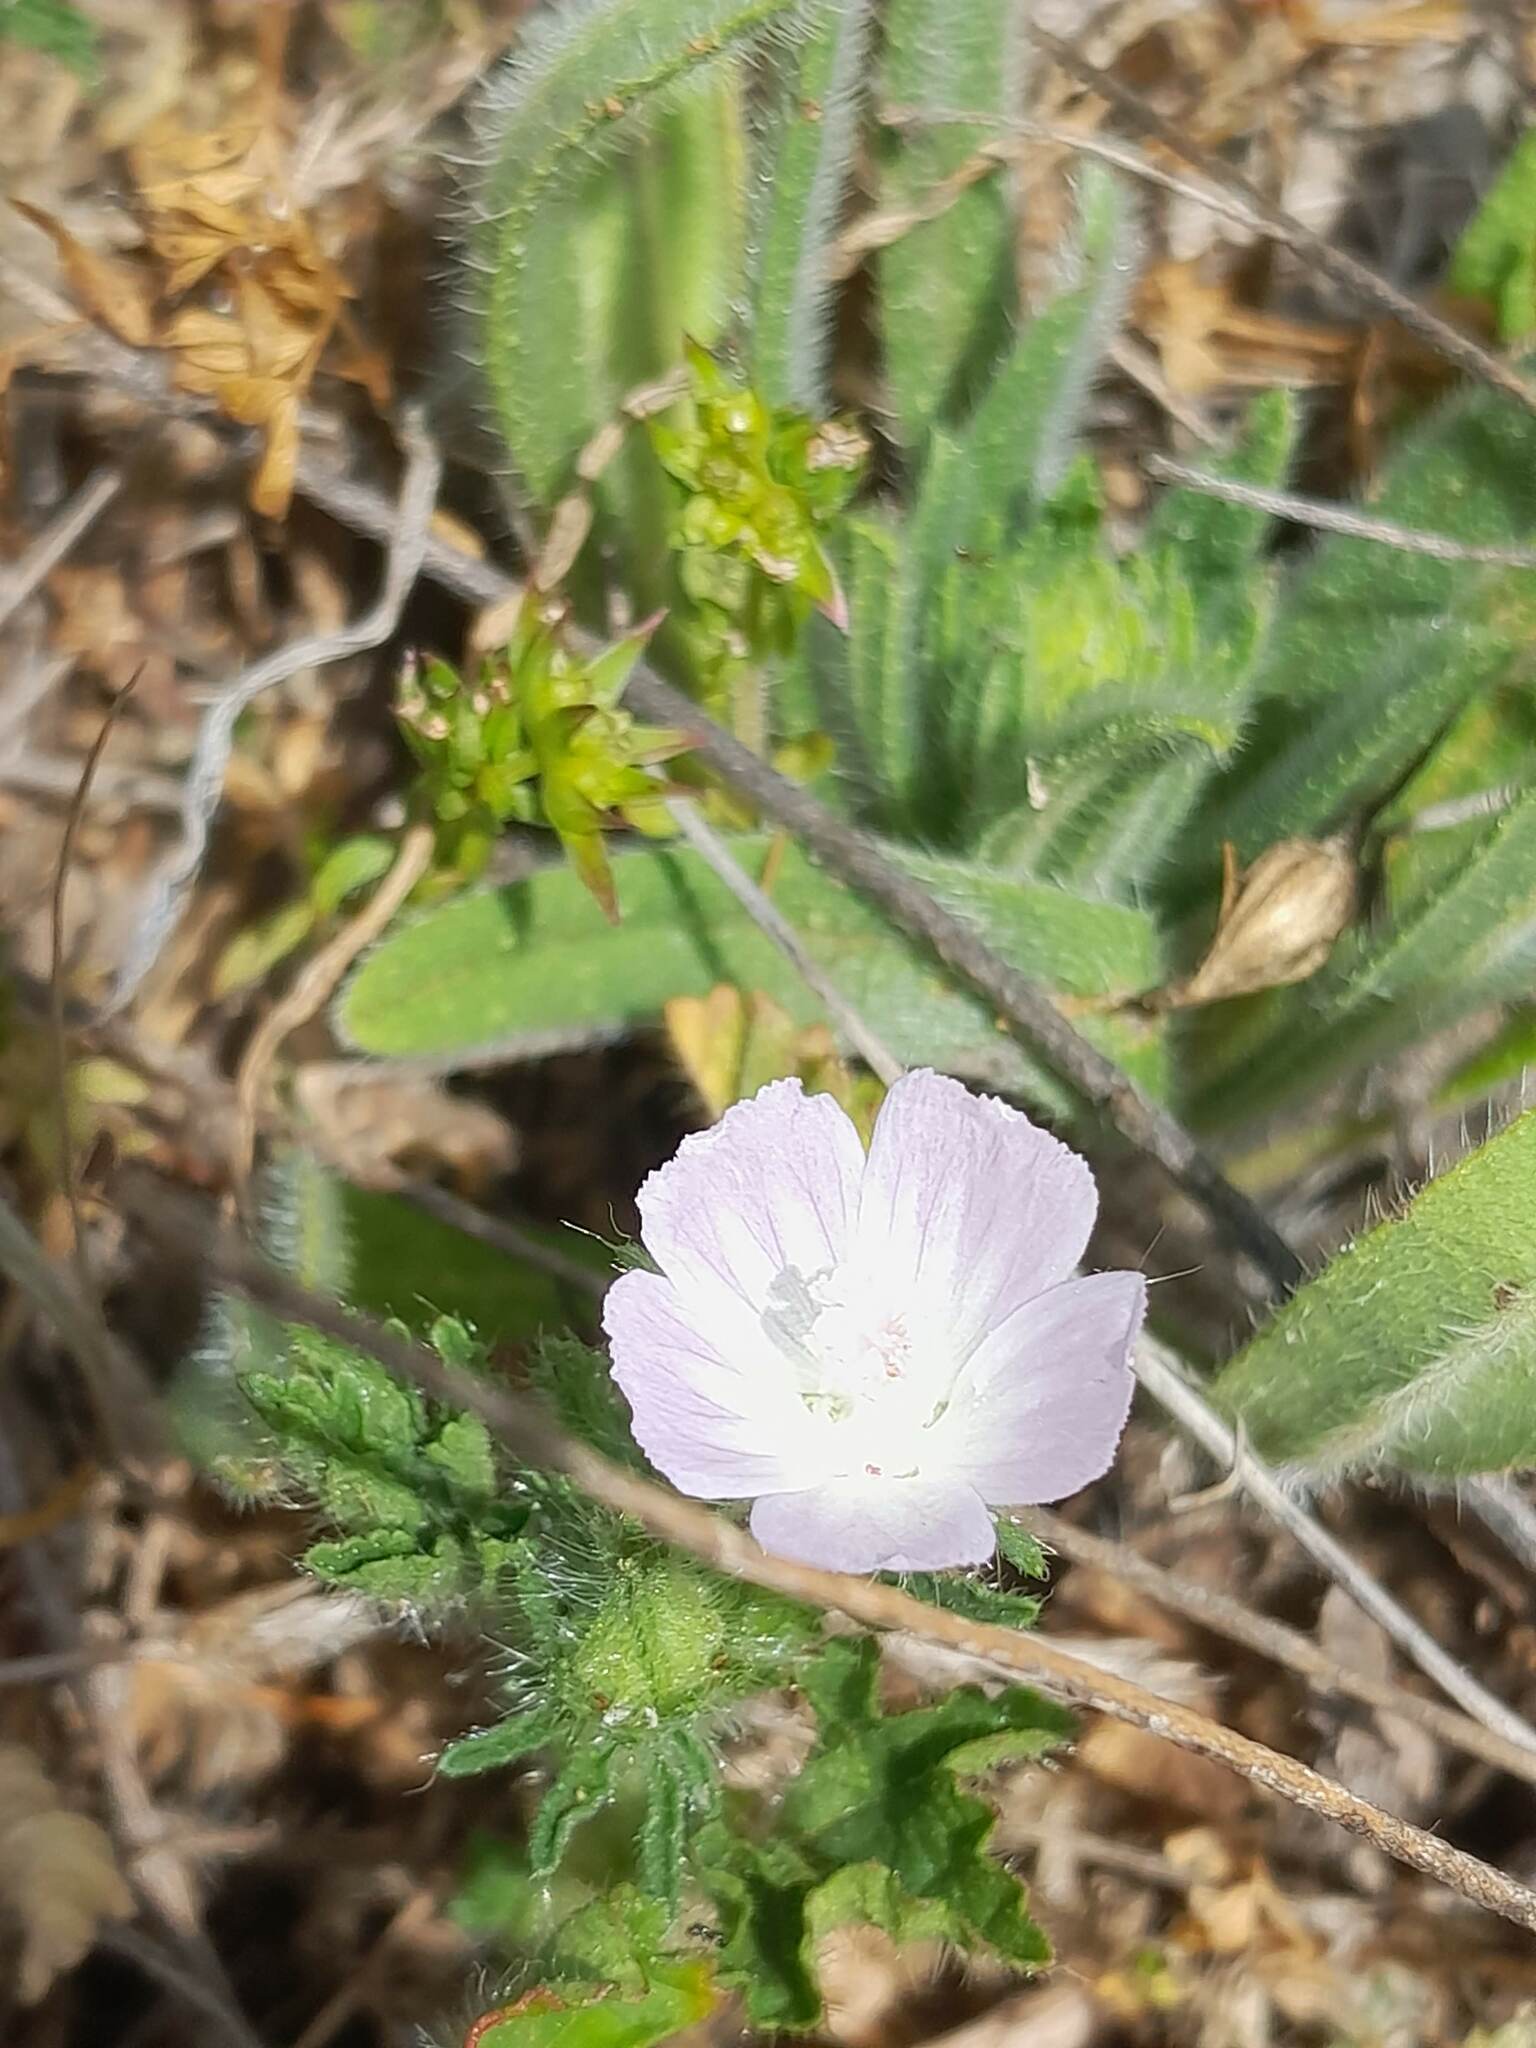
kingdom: Plantae
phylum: Tracheophyta
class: Magnoliopsida
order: Malvales
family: Malvaceae
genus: Althaea
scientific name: Althaea hirsuta
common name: Rough marsh-mallow
